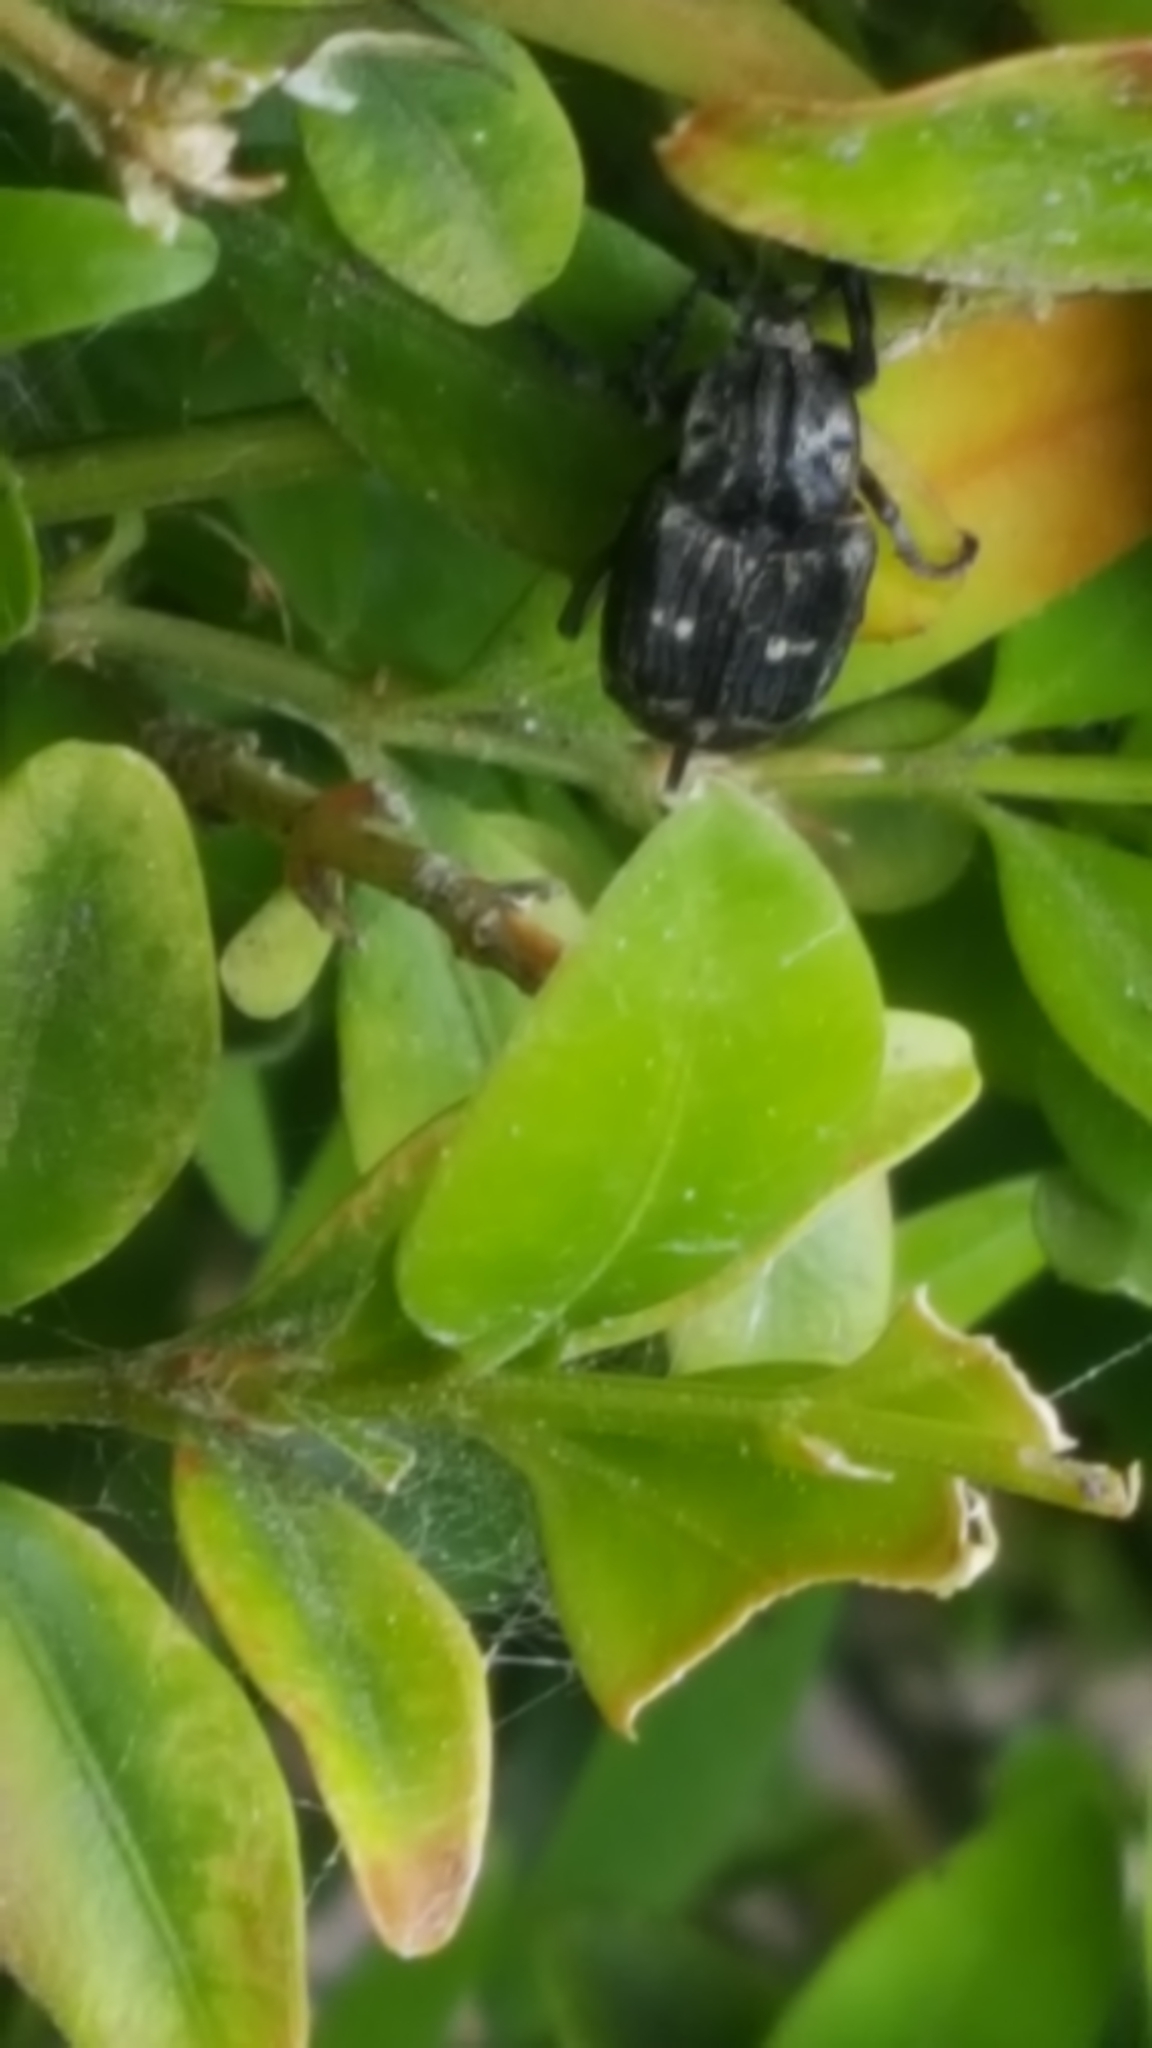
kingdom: Animalia
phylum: Arthropoda
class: Insecta
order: Coleoptera
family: Scarabaeidae
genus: Valgus
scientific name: Valgus hemipterus
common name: Bug flower chafer
